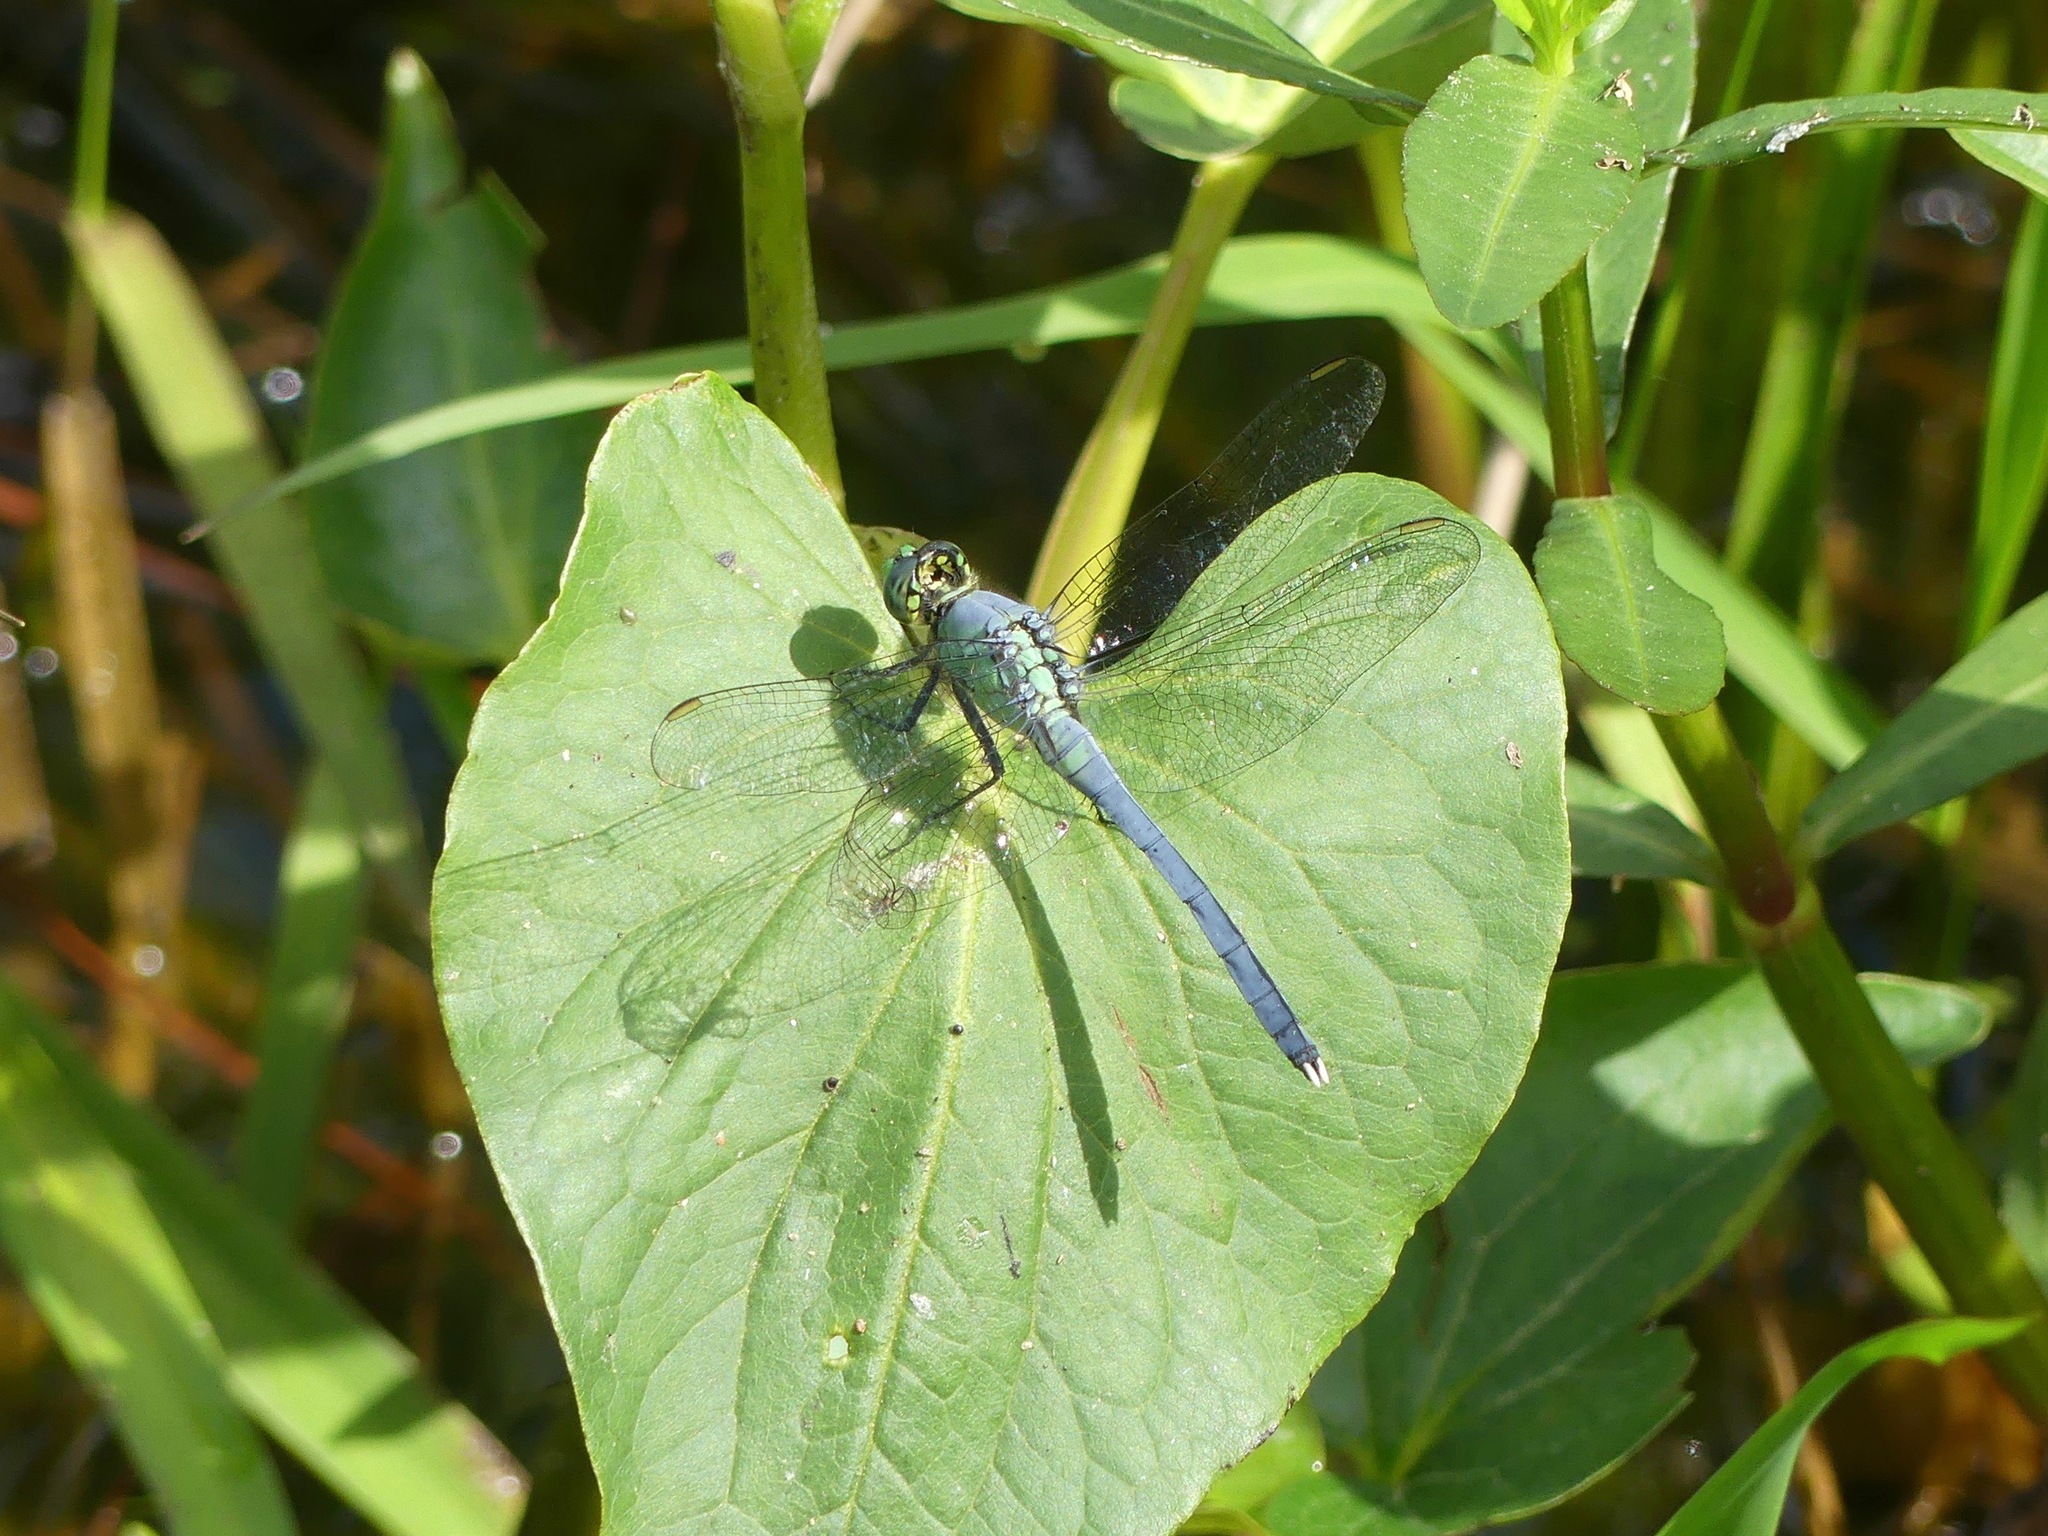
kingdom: Animalia
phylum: Arthropoda
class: Insecta
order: Odonata
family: Libellulidae
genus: Erythemis
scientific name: Erythemis simplicicollis
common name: Eastern pondhawk
